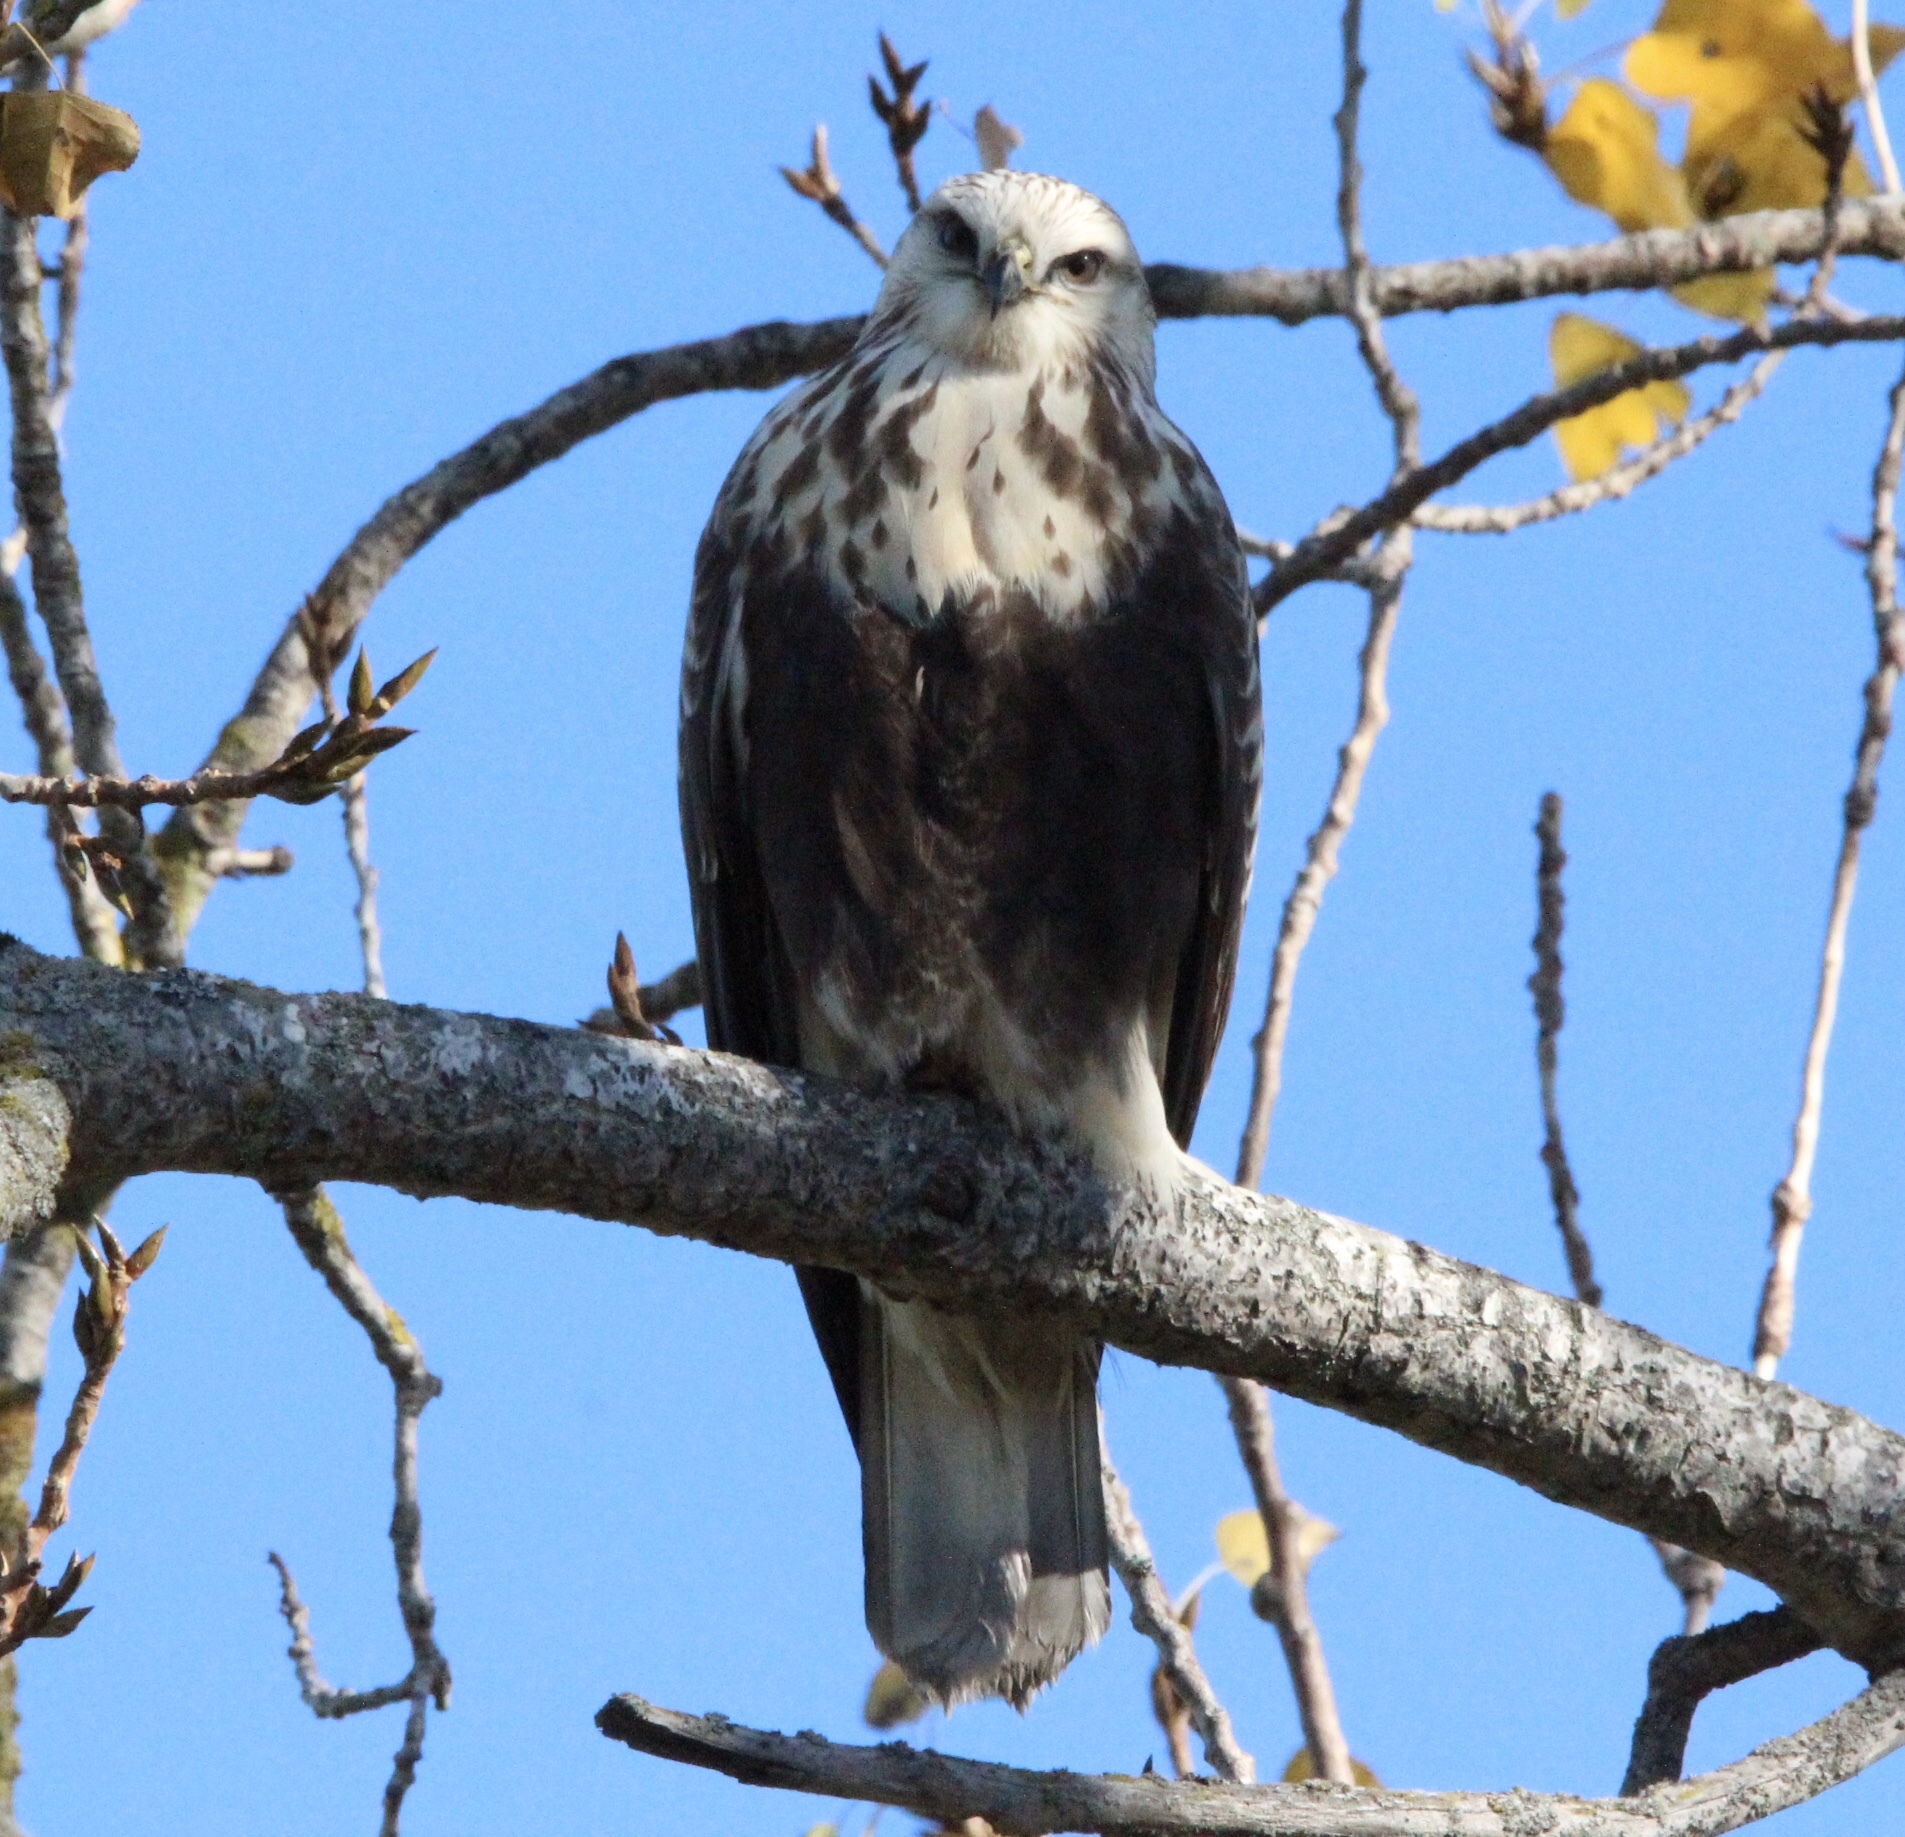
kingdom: Animalia
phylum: Chordata
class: Aves
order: Accipitriformes
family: Accipitridae
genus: Buteo
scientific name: Buteo lagopus
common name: Rough-legged buzzard
